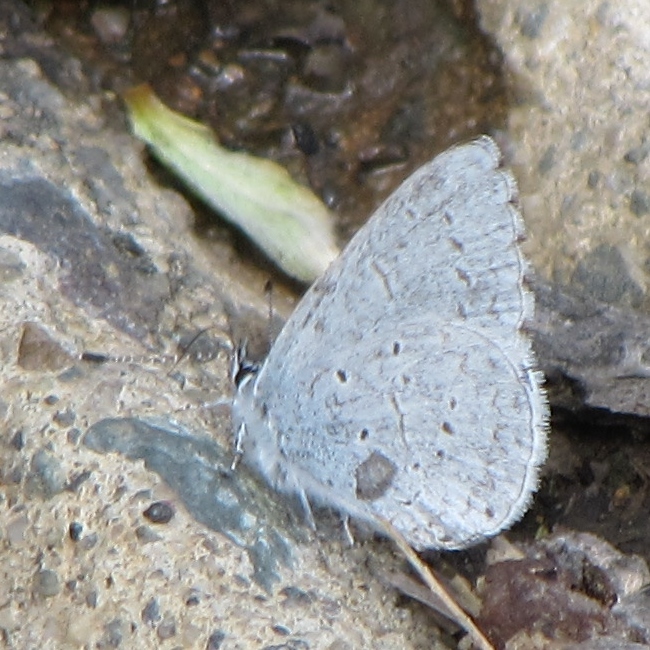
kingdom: Animalia
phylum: Arthropoda
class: Insecta
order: Lepidoptera
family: Lycaenidae
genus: Celastrina
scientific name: Celastrina ladon
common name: Spring azure
